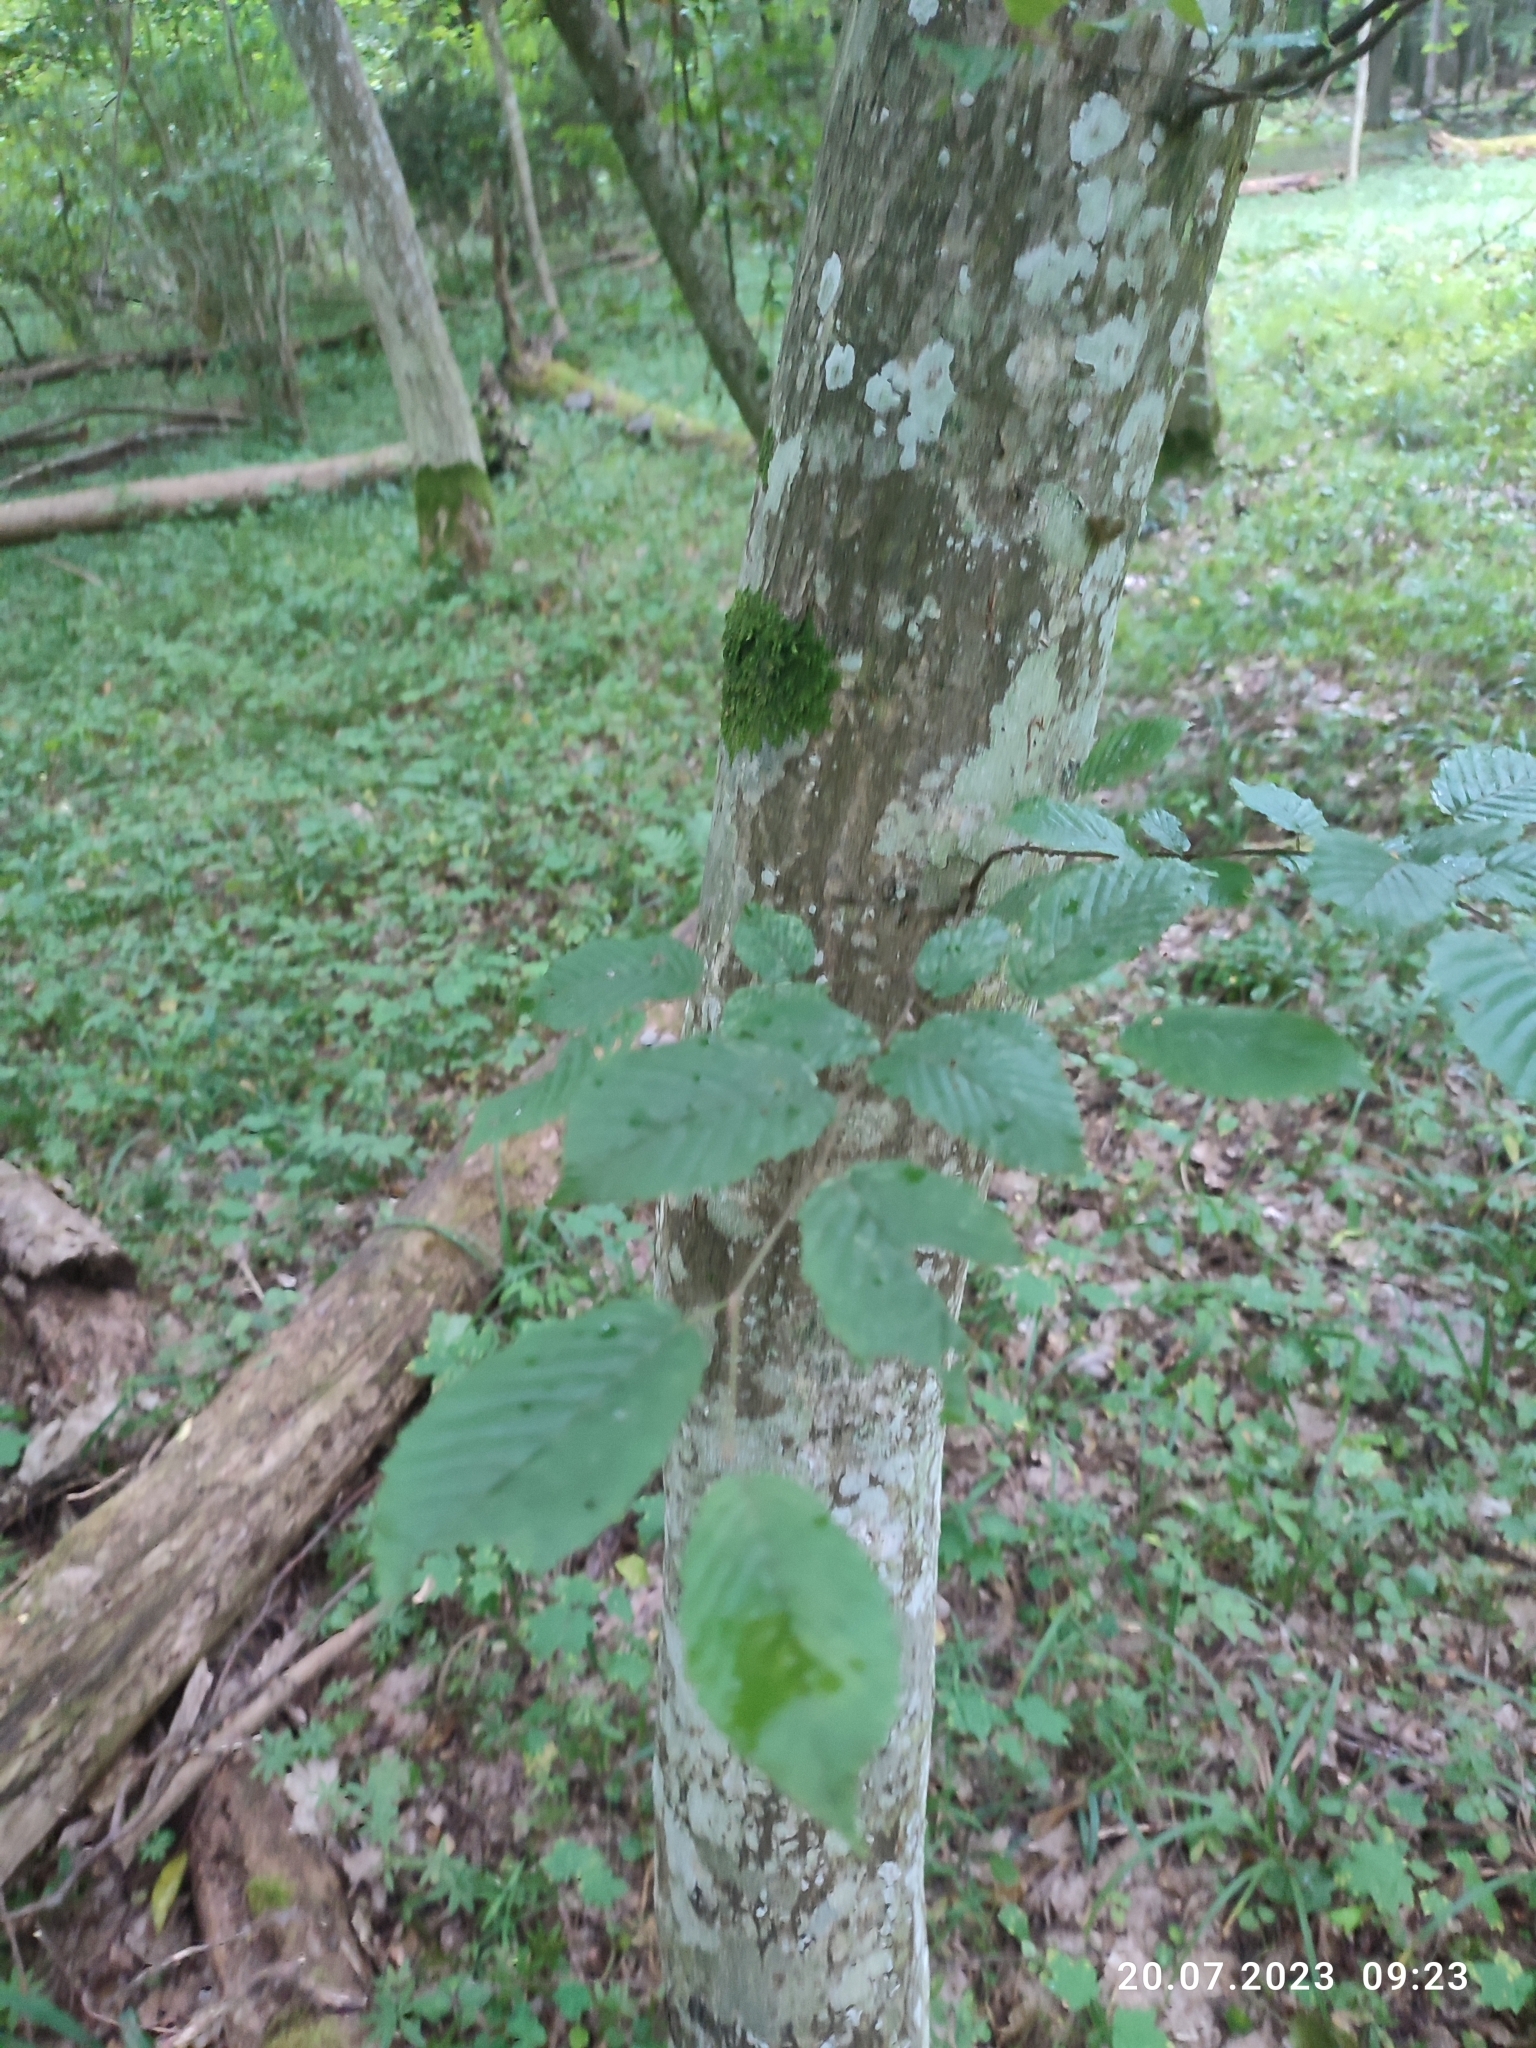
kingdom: Plantae
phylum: Tracheophyta
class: Magnoliopsida
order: Fagales
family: Betulaceae
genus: Carpinus
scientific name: Carpinus betulus
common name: Hornbeam
